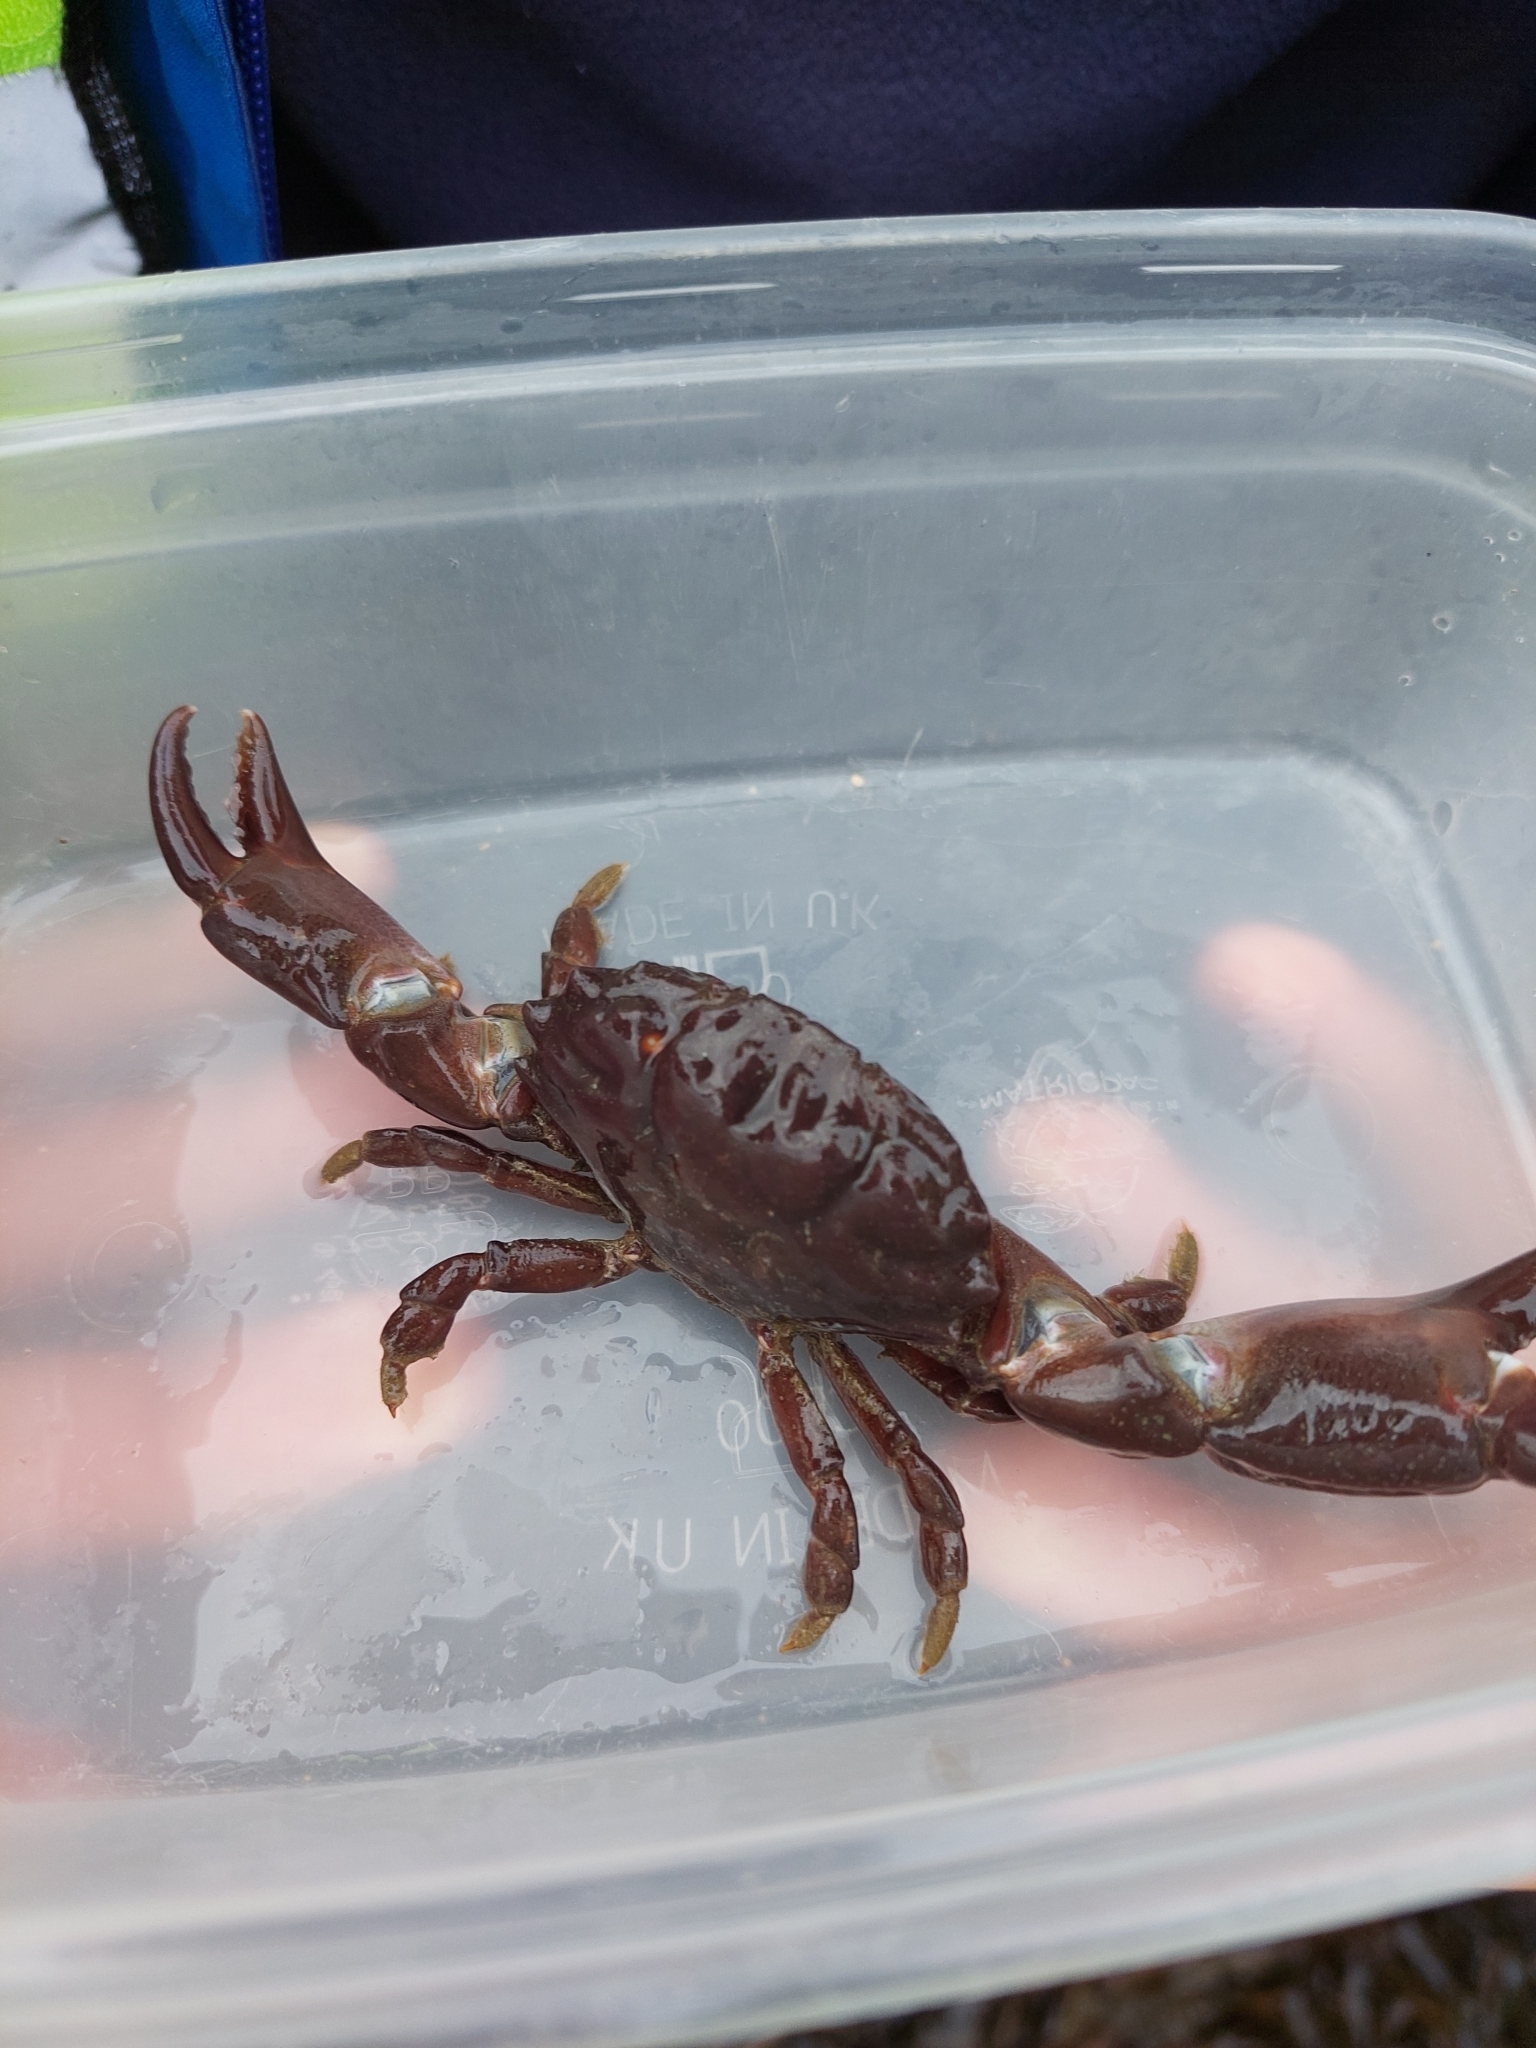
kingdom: Animalia
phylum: Arthropoda
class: Malacostraca
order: Decapoda
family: Xanthidae
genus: Xantho
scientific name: Xantho hydrophilus
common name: Montagu's crab
